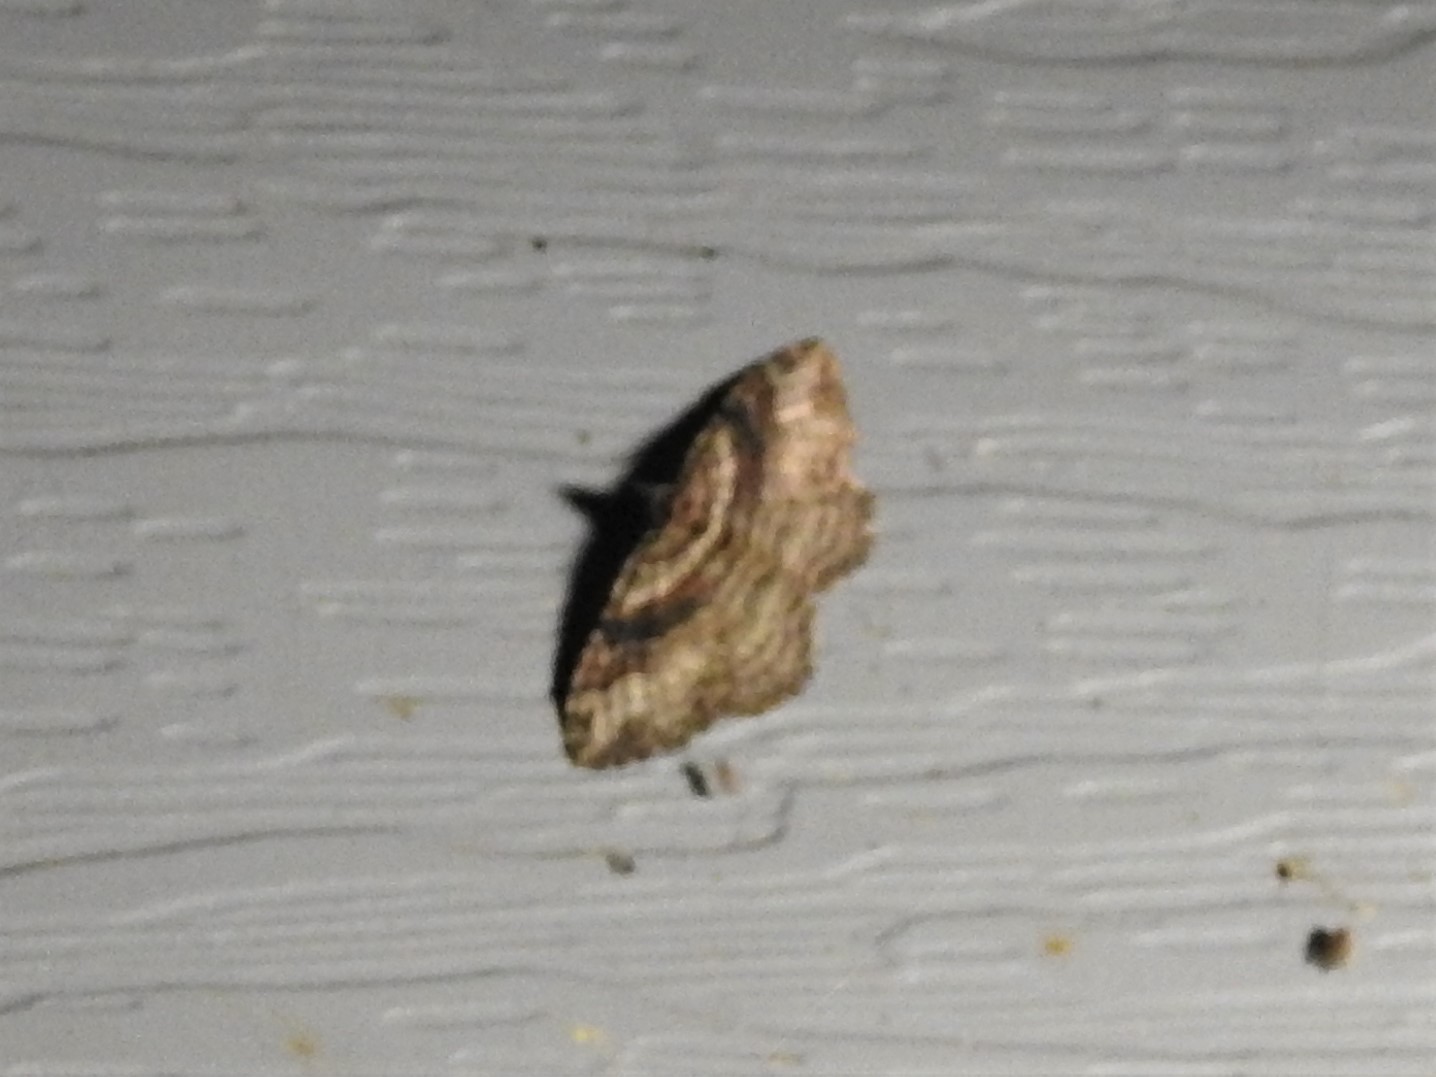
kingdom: Animalia
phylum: Arthropoda
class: Insecta
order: Lepidoptera
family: Geometridae
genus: Costaconvexa
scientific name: Costaconvexa centrostrigaria
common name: Bent-line carpet
